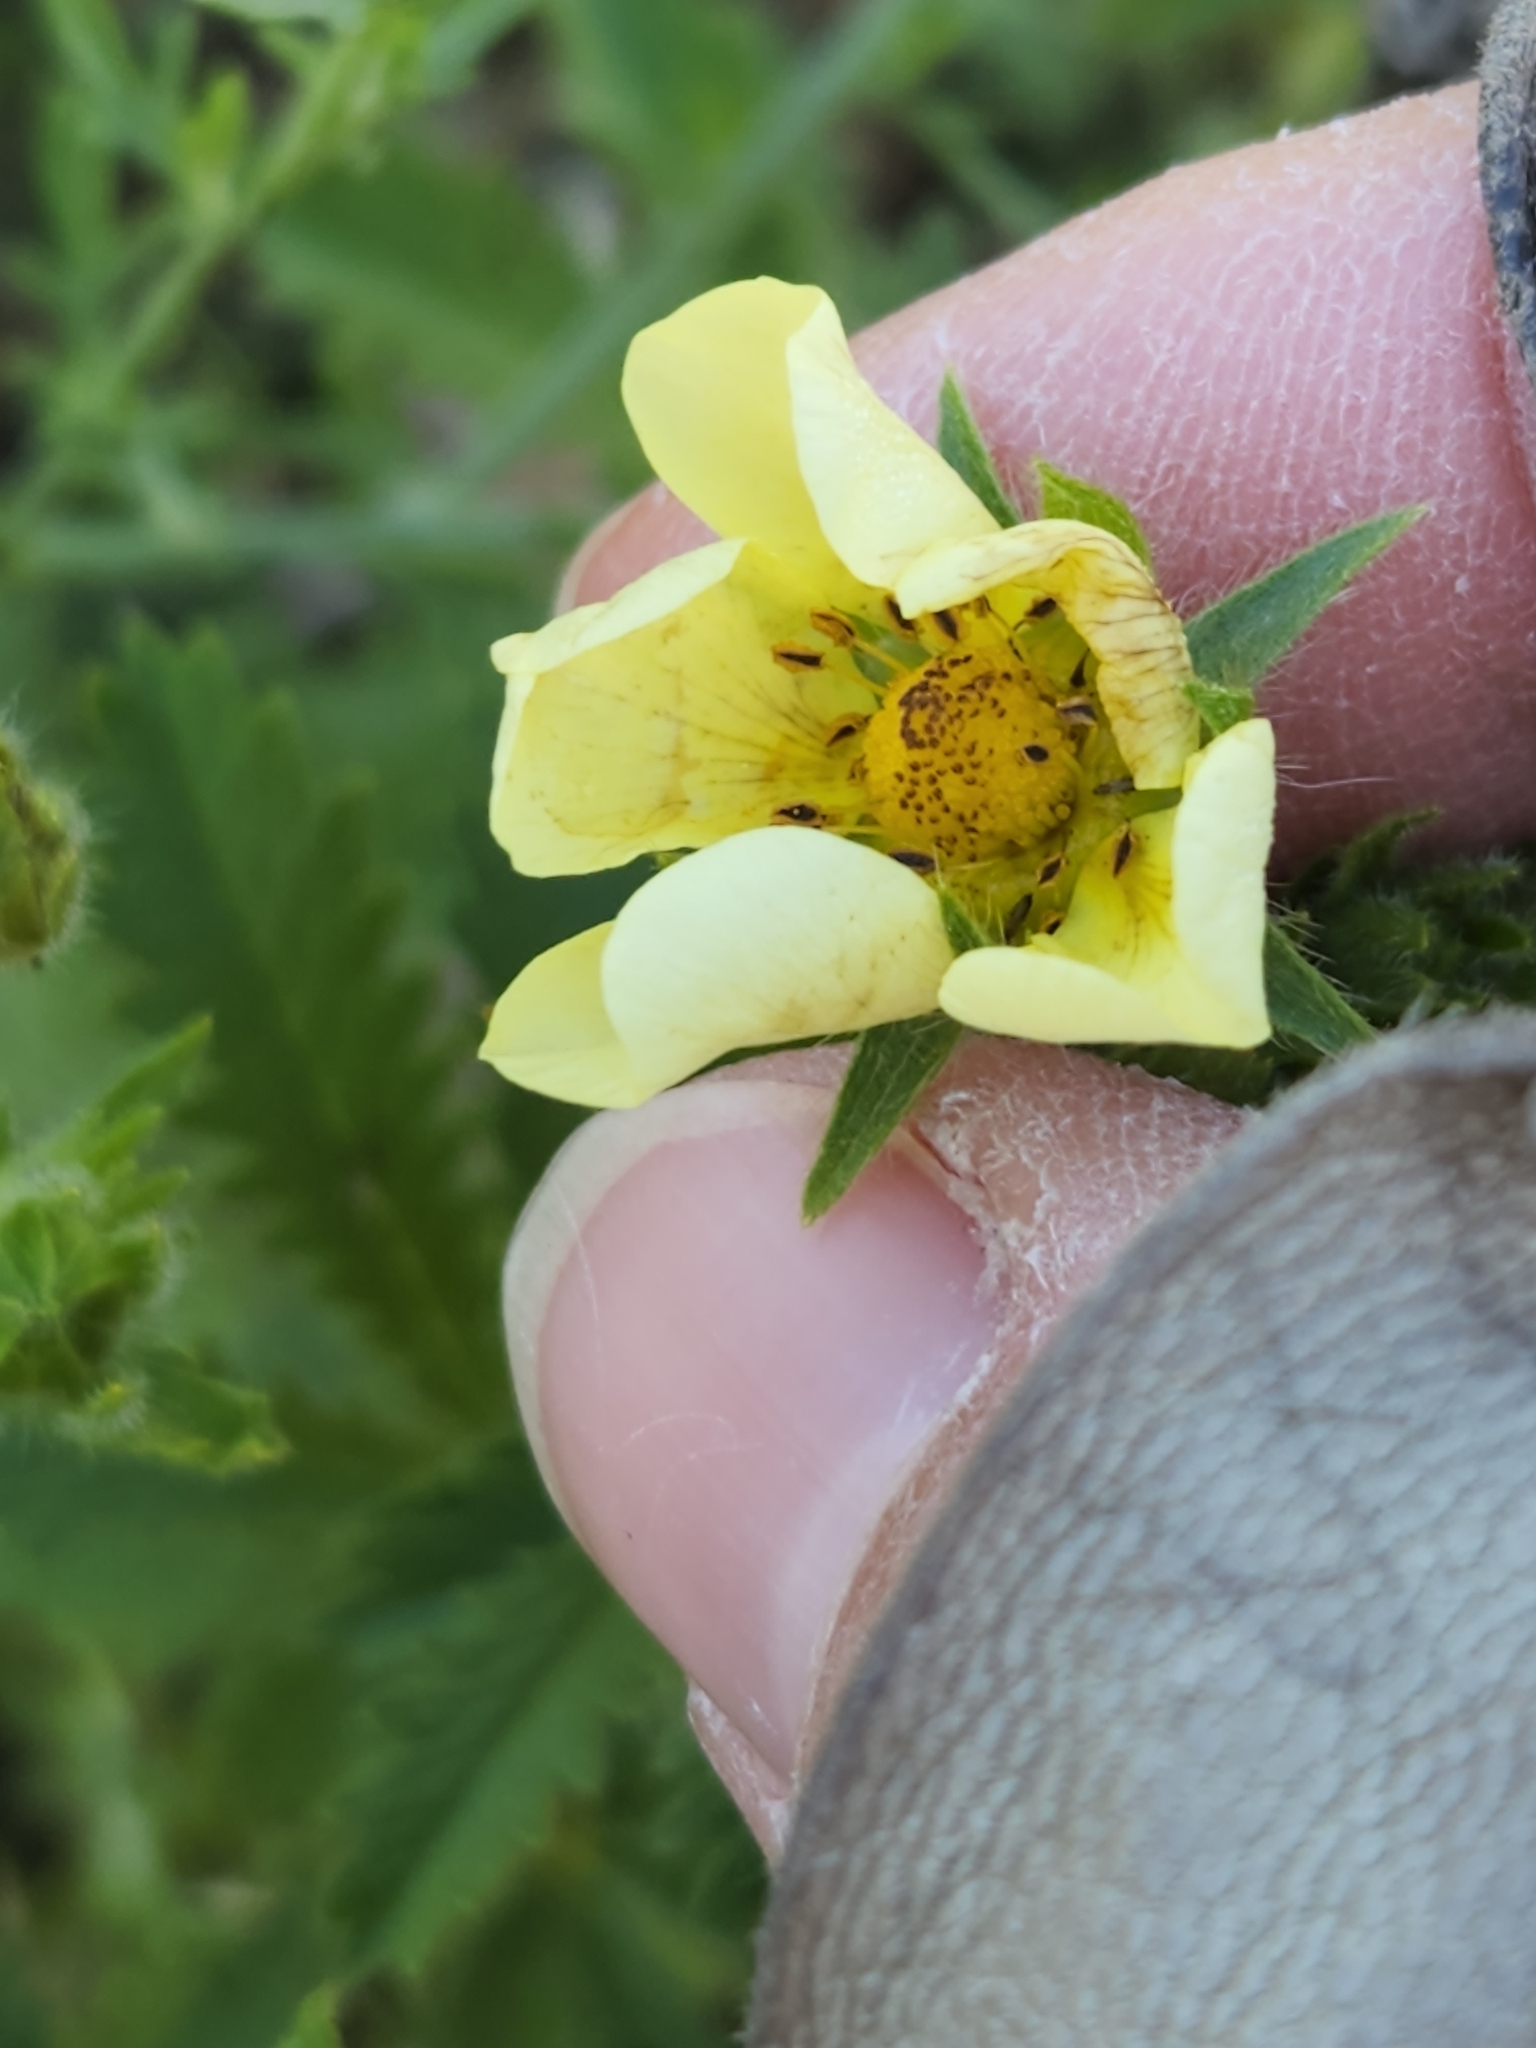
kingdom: Plantae
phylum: Tracheophyta
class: Magnoliopsida
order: Rosales
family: Rosaceae
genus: Potentilla
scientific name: Potentilla recta
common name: Sulphur cinquefoil
